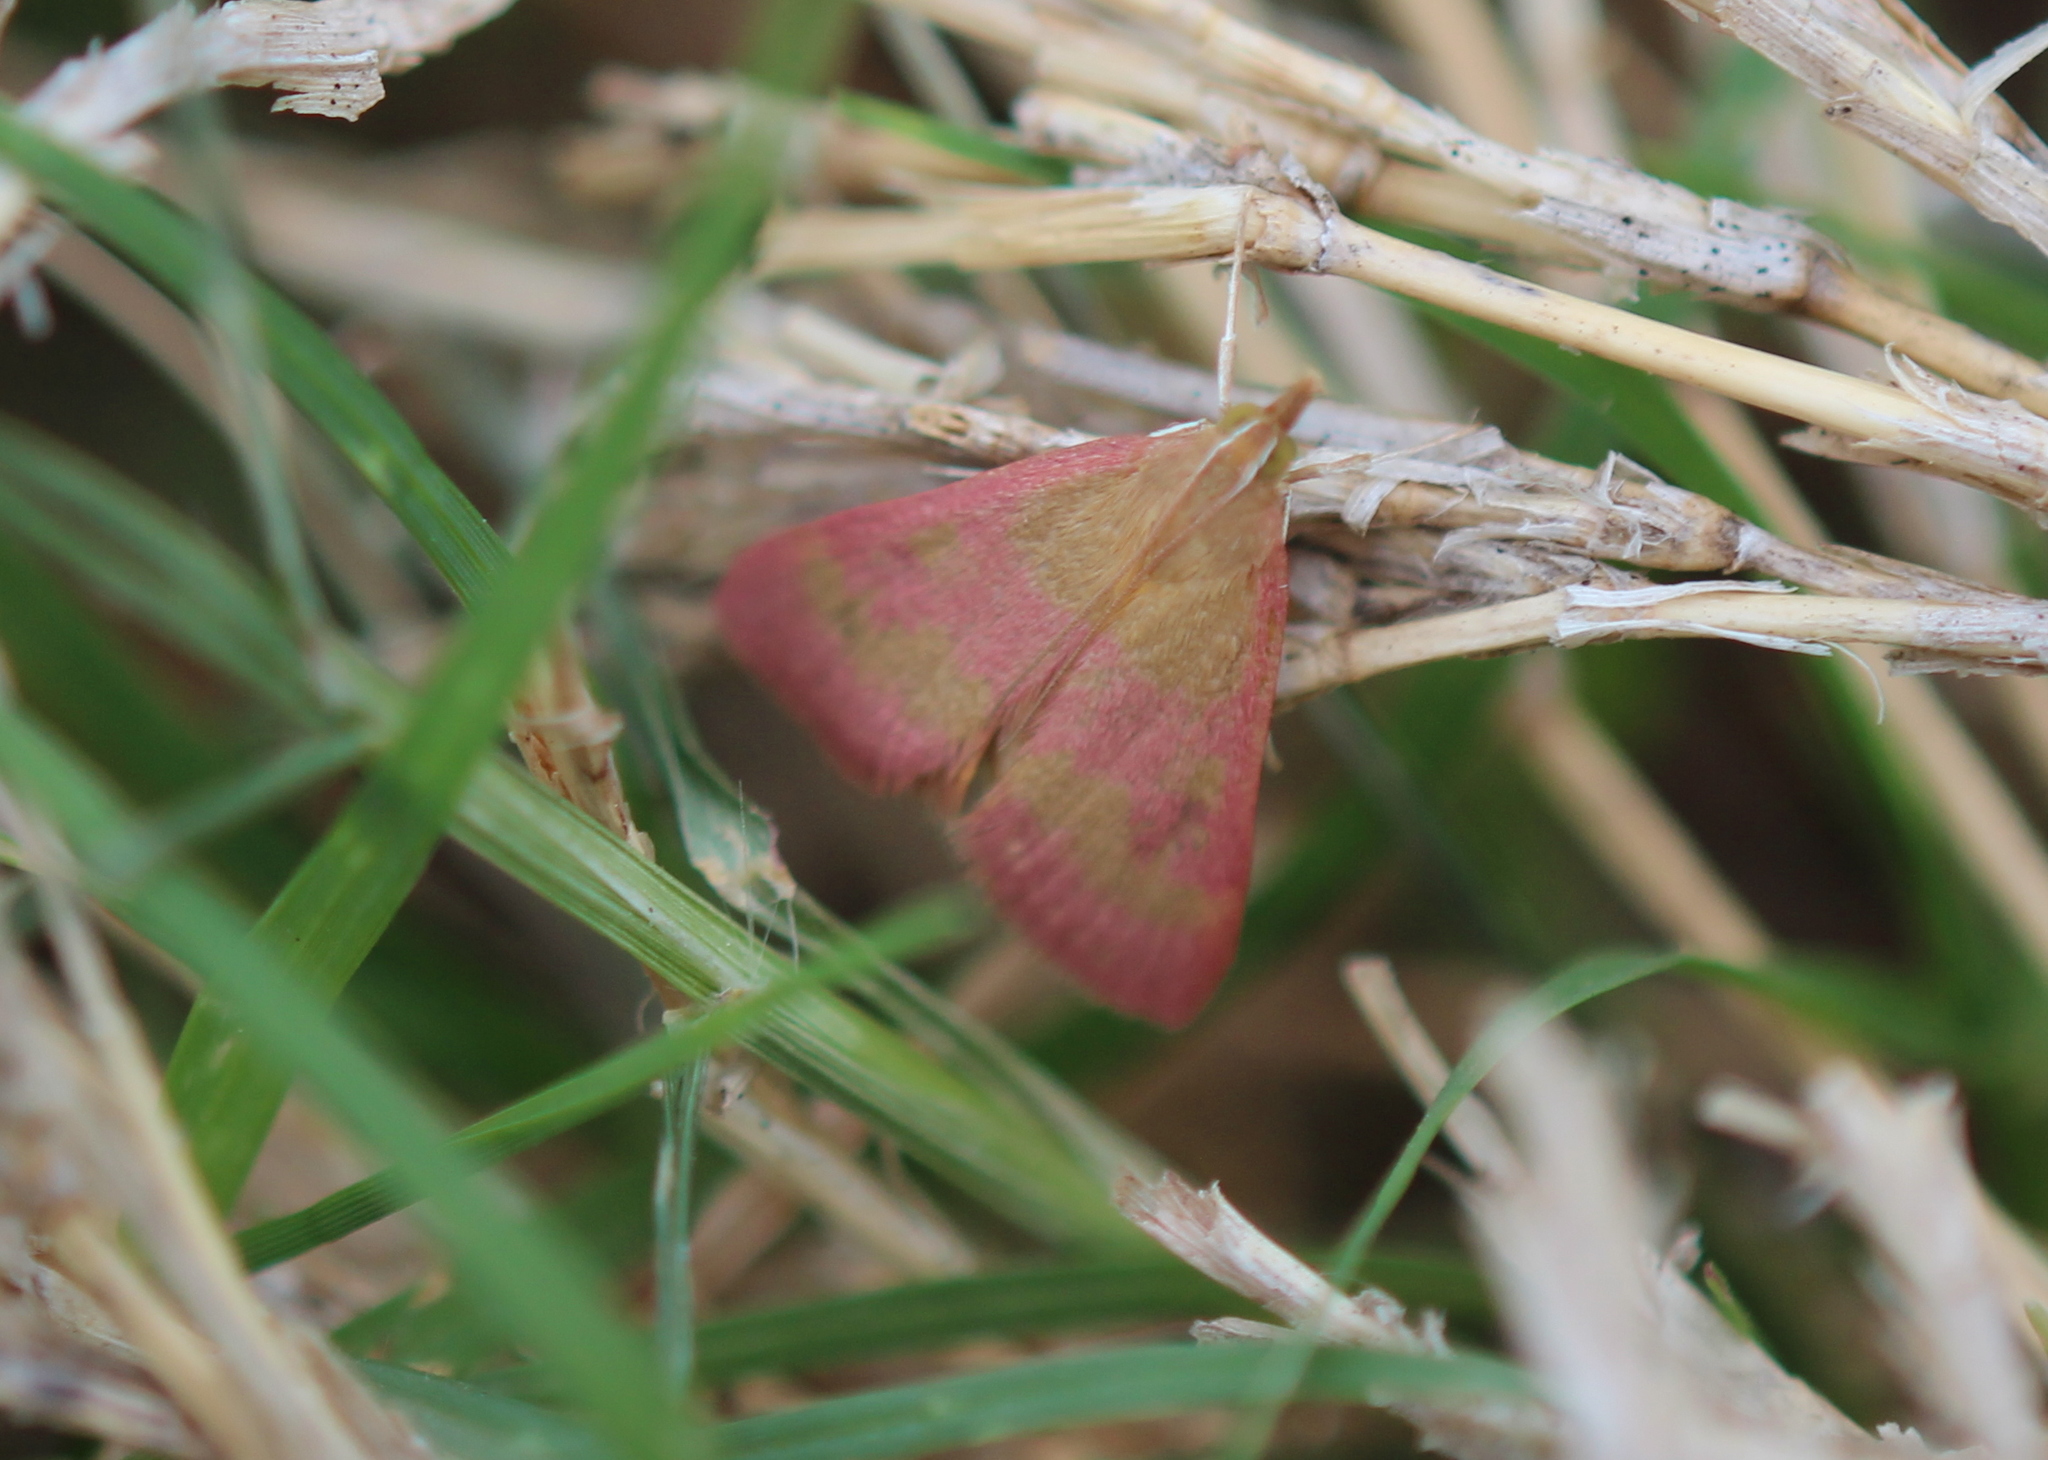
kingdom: Animalia
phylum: Arthropoda
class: Insecta
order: Lepidoptera
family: Crambidae
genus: Pyrausta
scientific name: Pyrausta laticlavia
